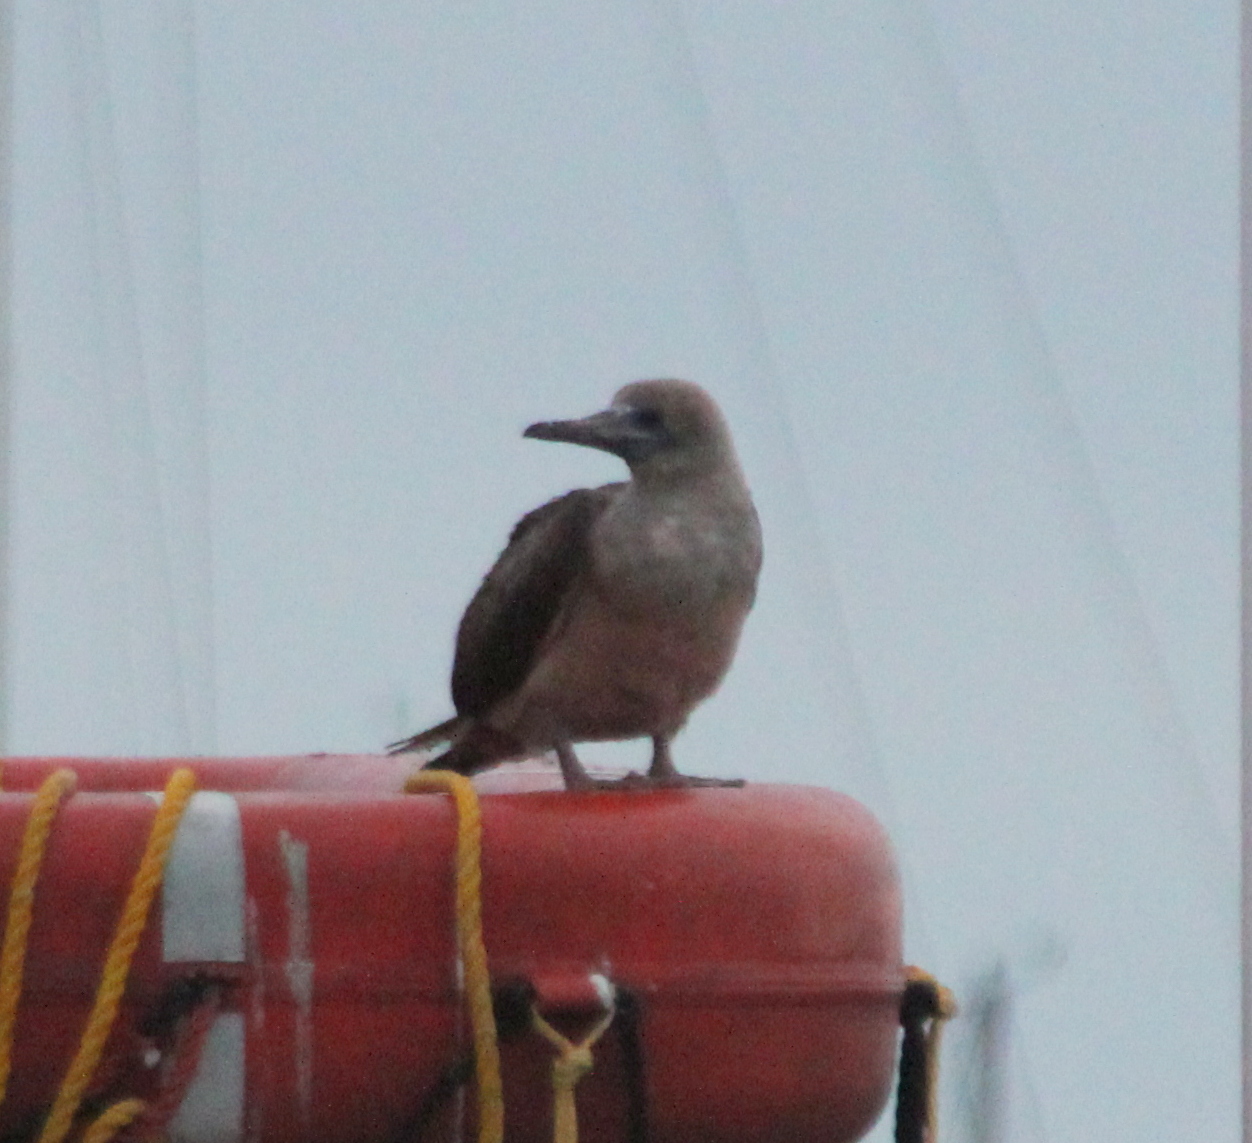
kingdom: Animalia
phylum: Chordata
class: Aves
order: Suliformes
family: Sulidae
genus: Sula
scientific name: Sula sula
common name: Red-footed booby
